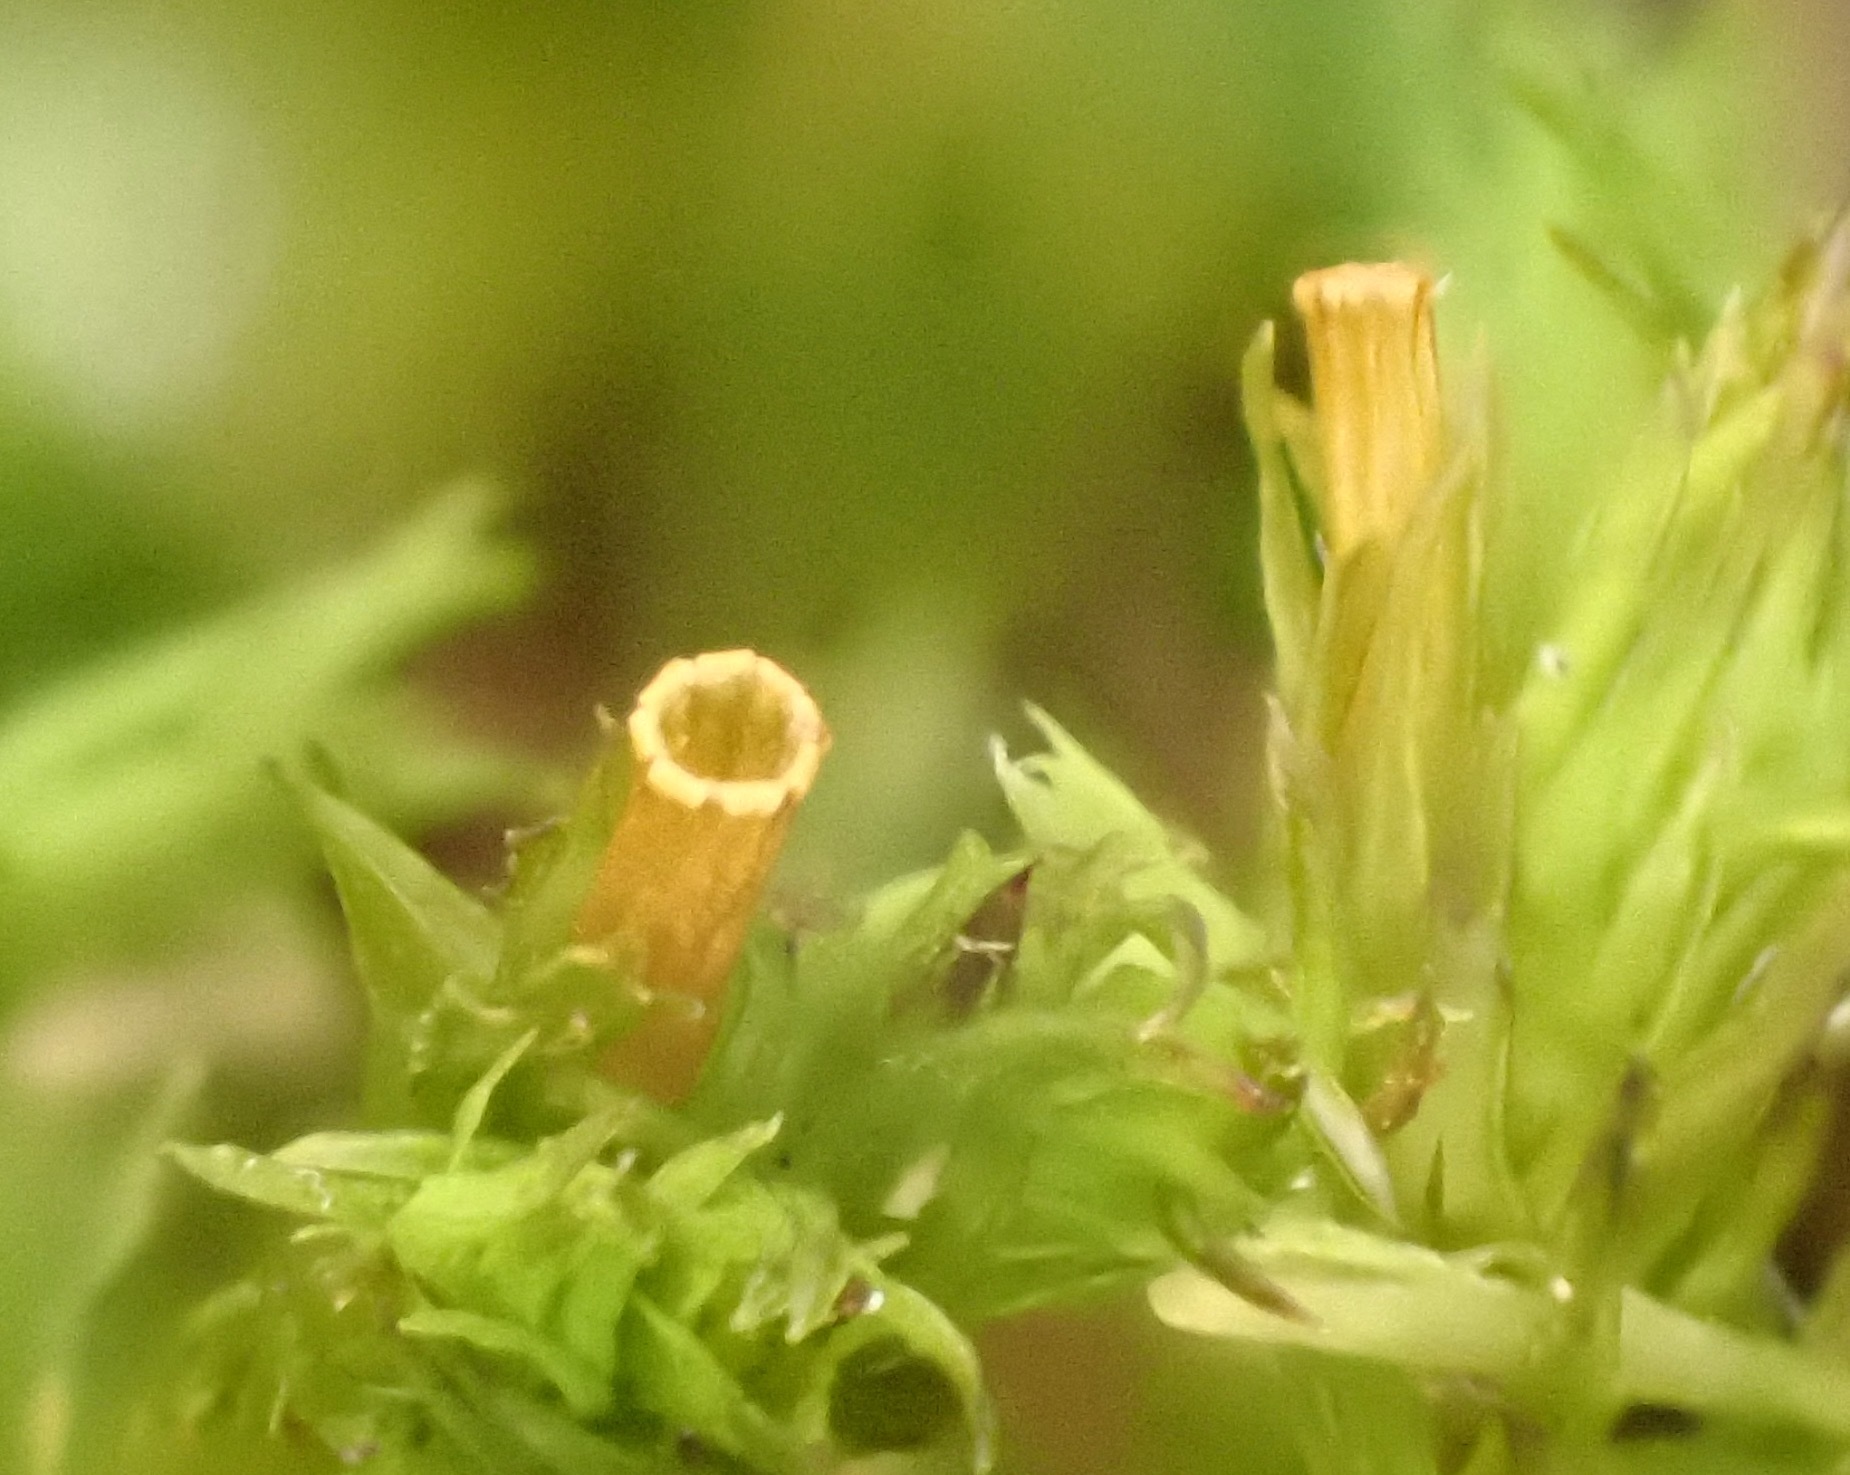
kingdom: Plantae
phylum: Bryophyta
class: Bryopsida
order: Orthotrichales
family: Orthotrichaceae
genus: Lewinskya
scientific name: Lewinskya affinis
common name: Wood bristle-moss
